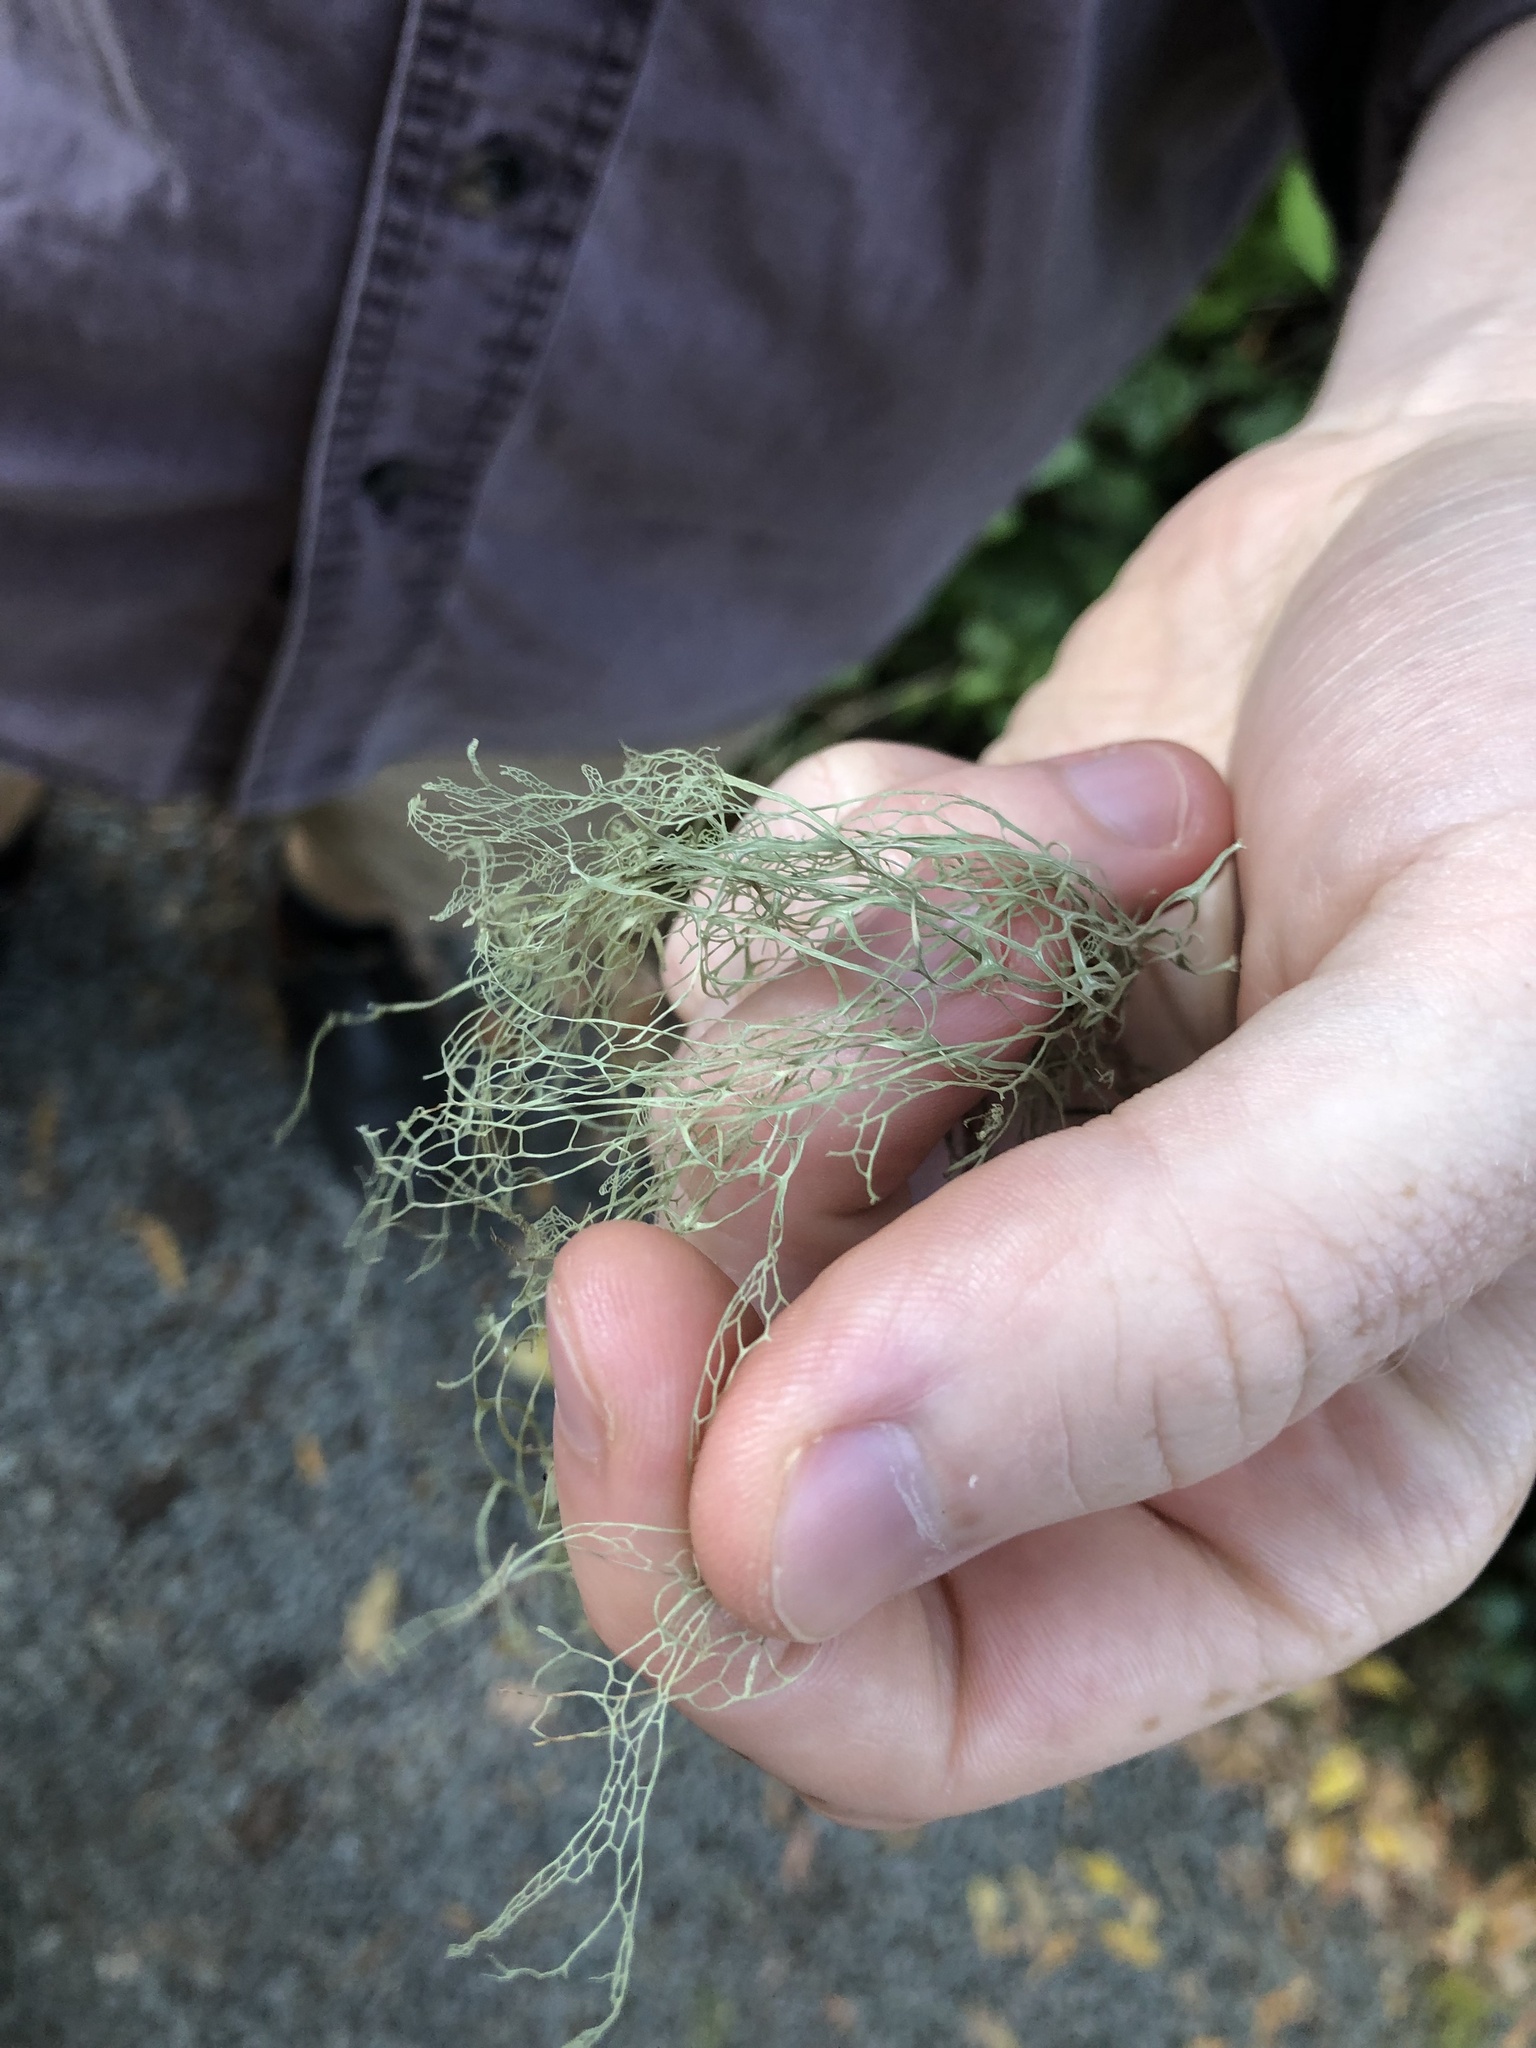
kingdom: Fungi
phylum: Ascomycota
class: Lecanoromycetes
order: Lecanorales
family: Ramalinaceae
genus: Ramalina
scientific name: Ramalina menziesii
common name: Lace lichen
